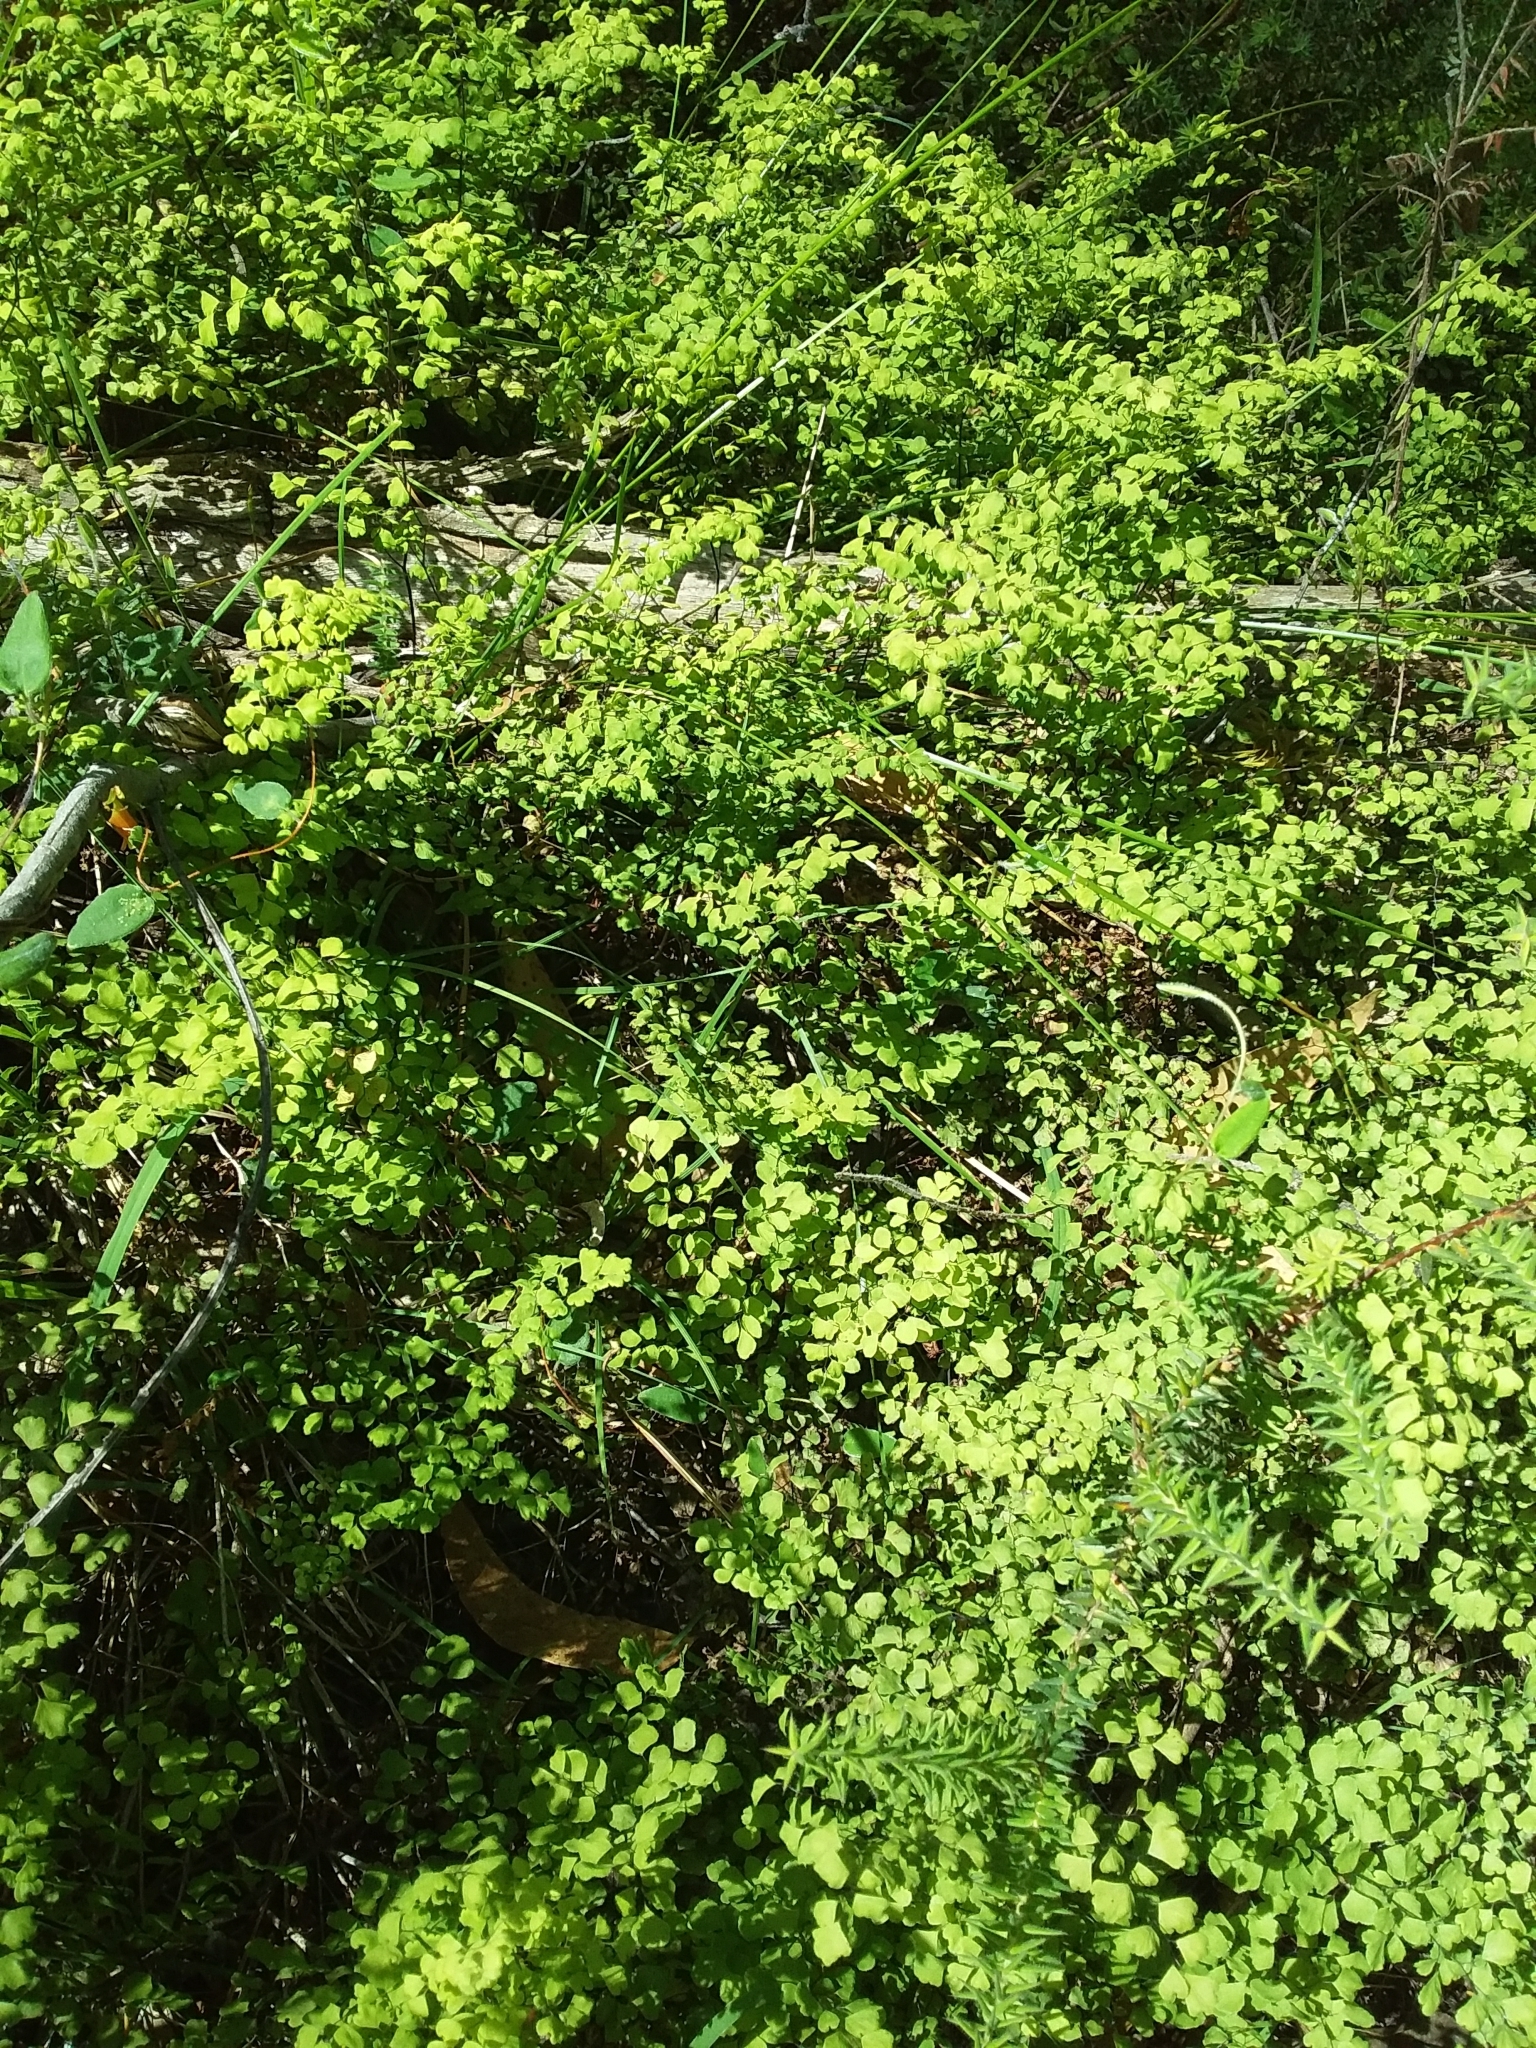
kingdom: Plantae
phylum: Tracheophyta
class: Polypodiopsida
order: Polypodiales
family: Pteridaceae
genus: Adiantum
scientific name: Adiantum aethiopicum
